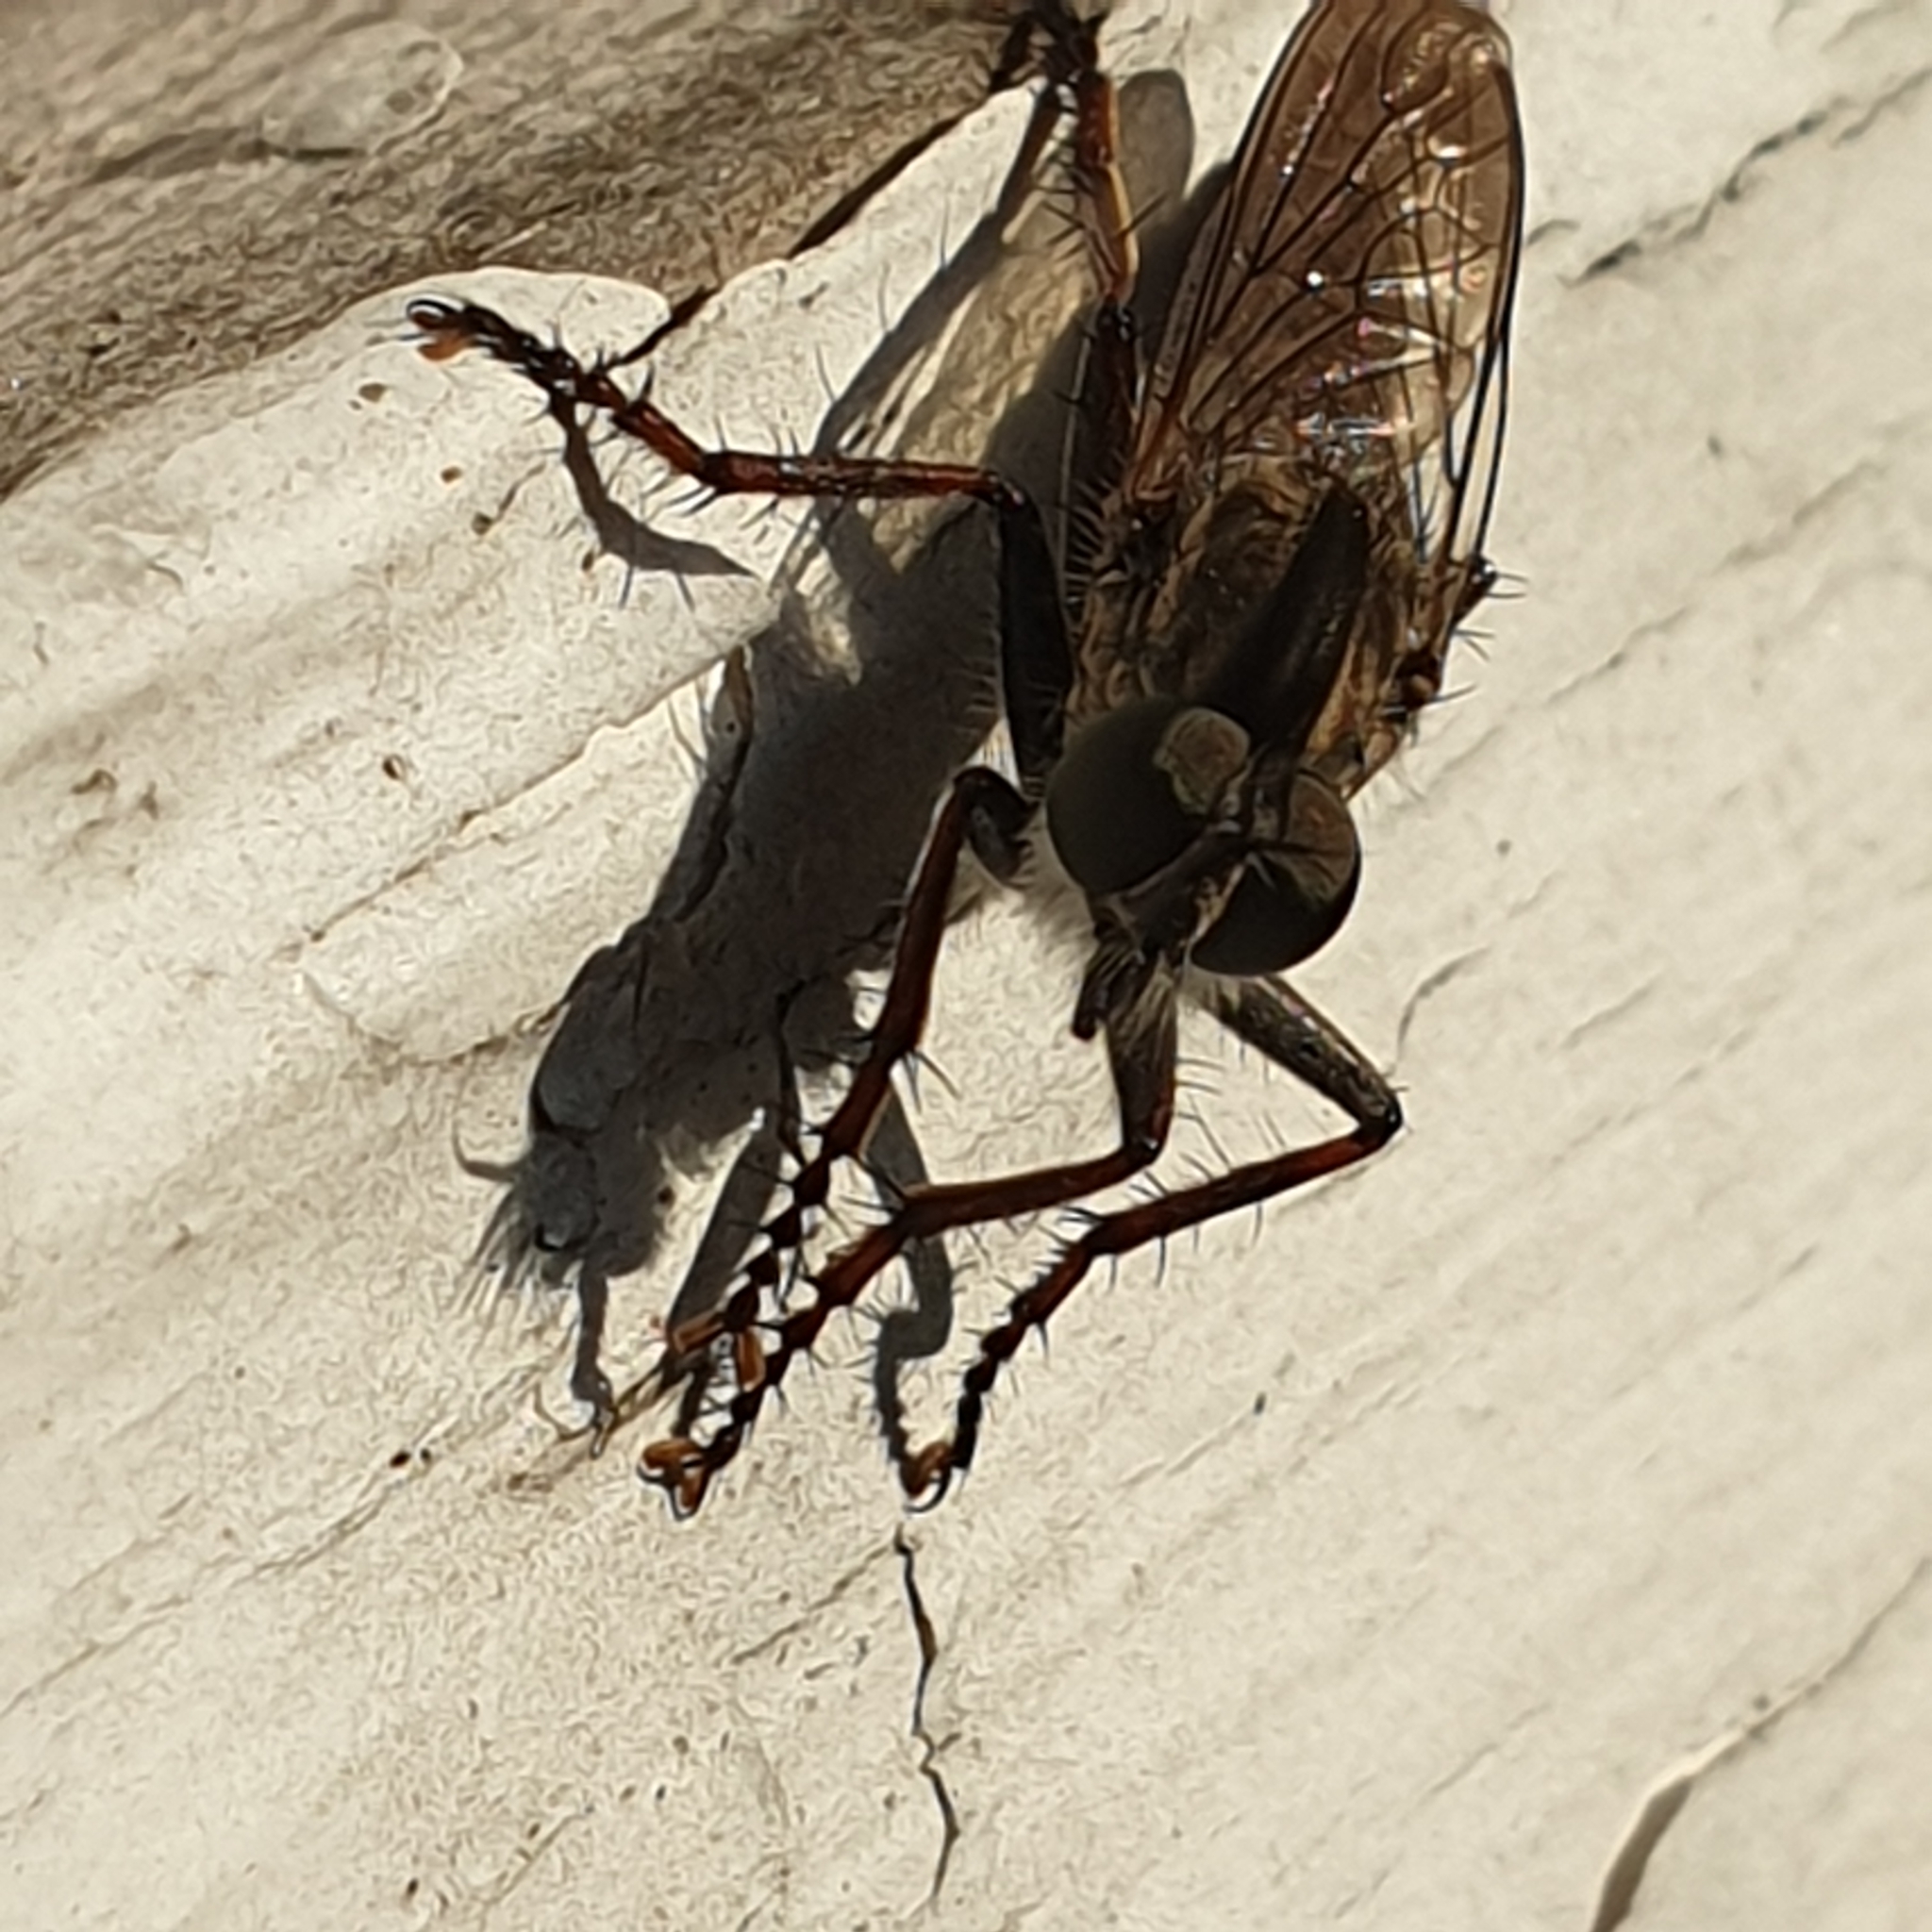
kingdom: Animalia
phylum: Arthropoda
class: Insecta
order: Diptera
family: Asilidae
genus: Machimus
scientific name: Machimus atricapillus
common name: Kite-tailed robberfly
